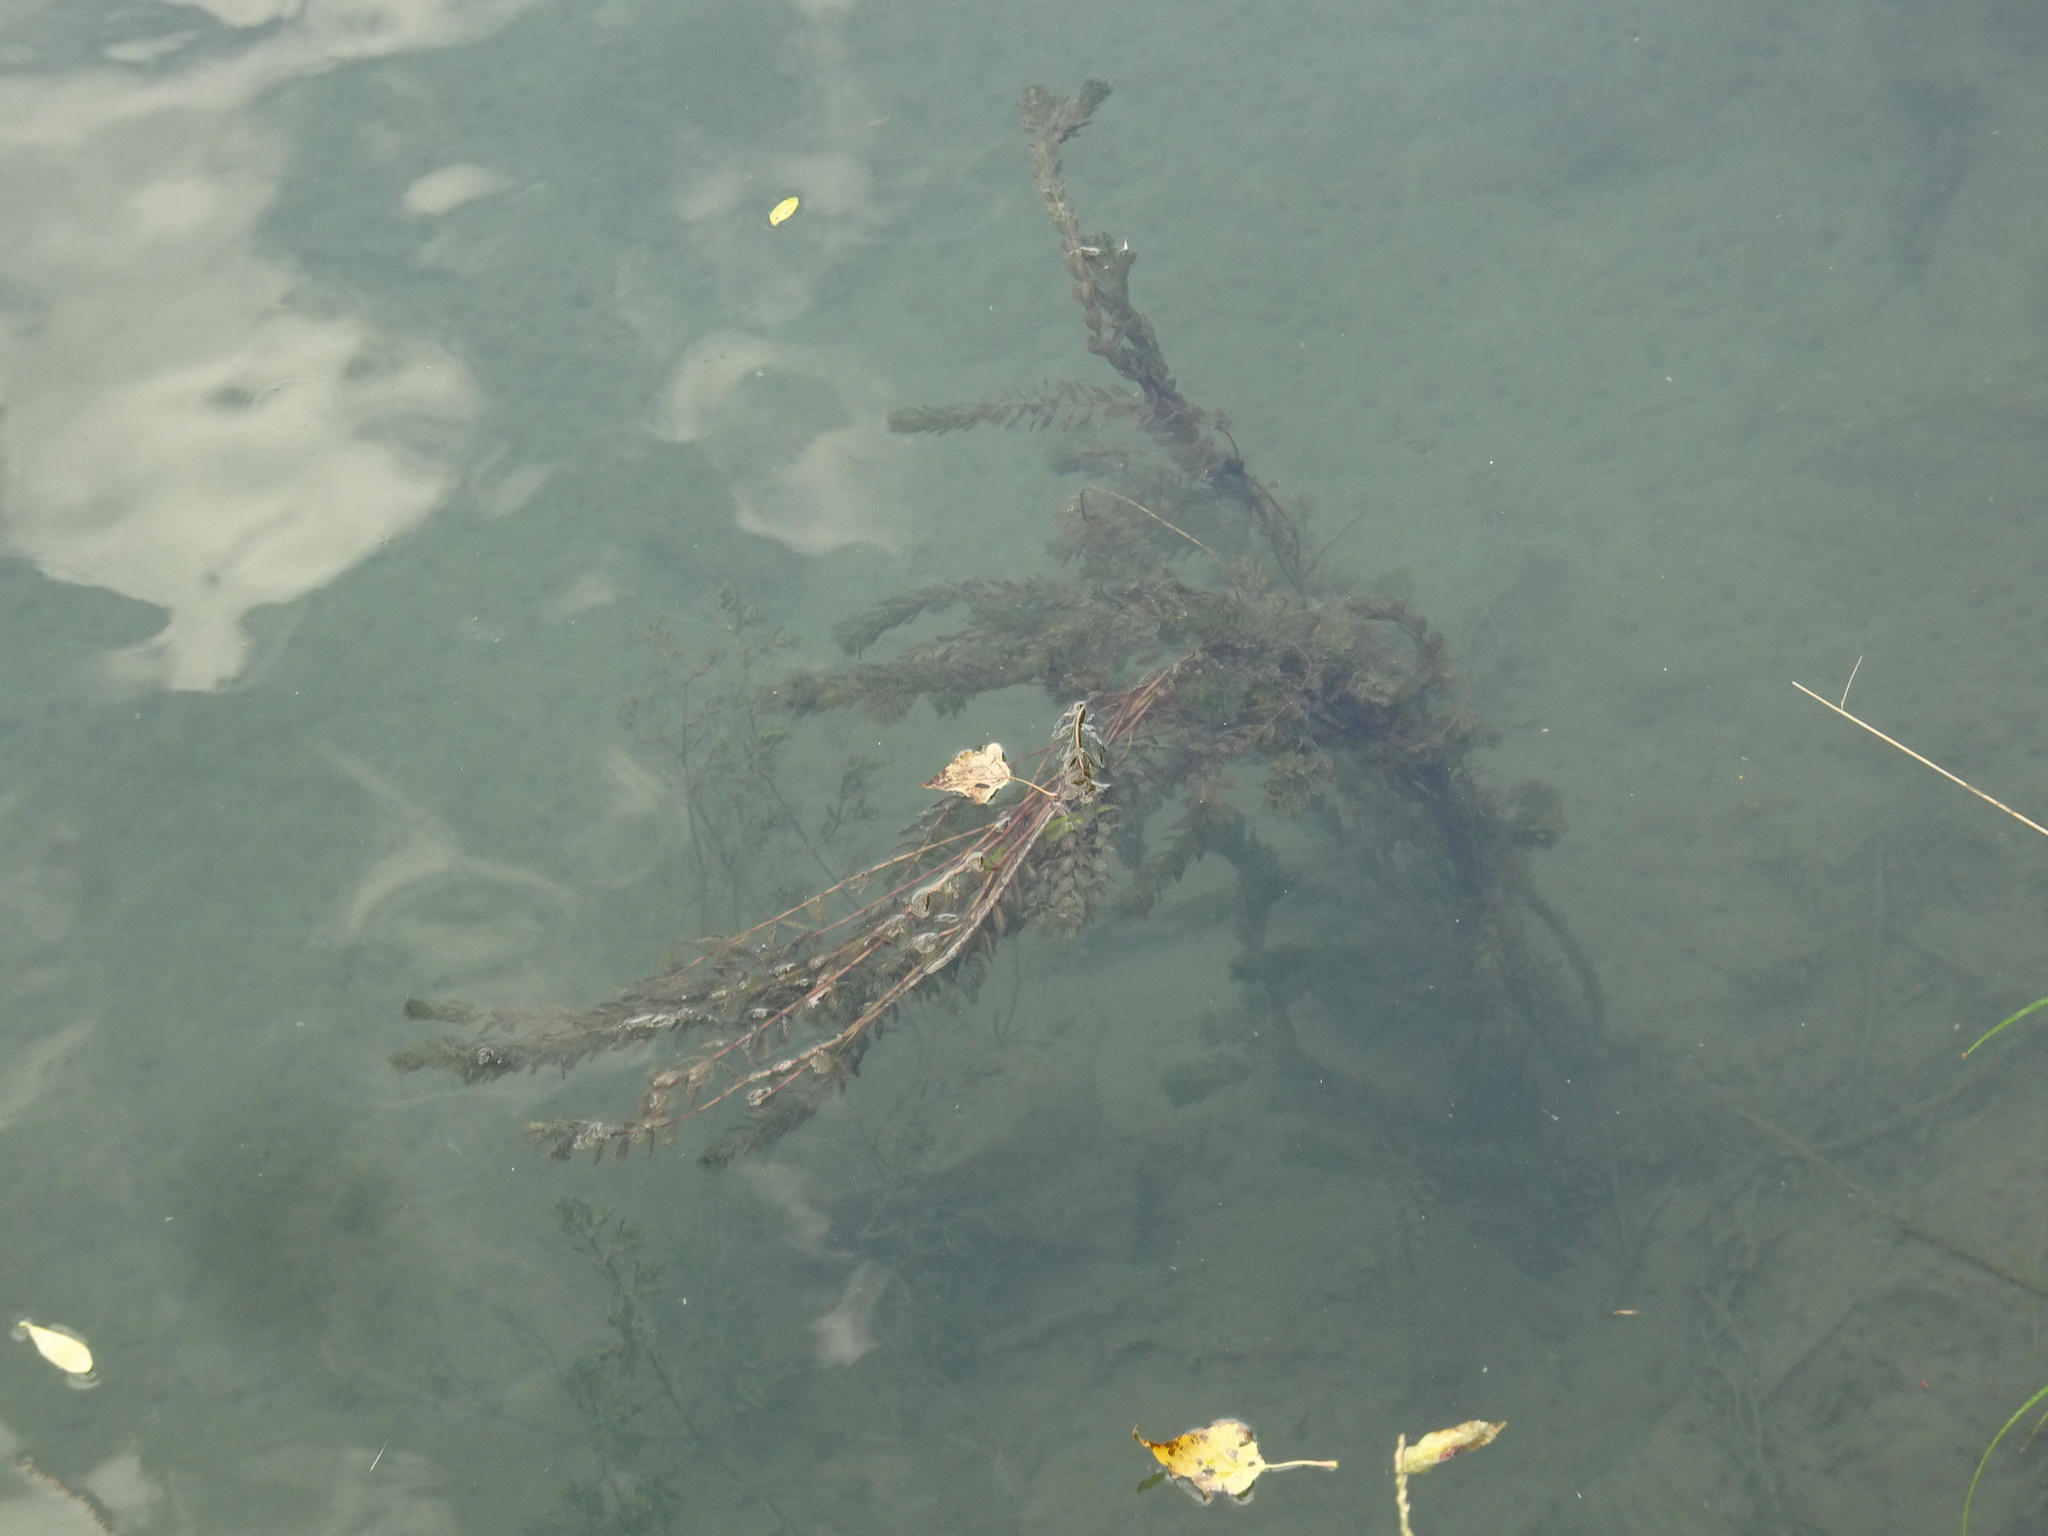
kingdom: Plantae
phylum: Tracheophyta
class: Magnoliopsida
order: Saxifragales
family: Haloragaceae
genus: Myriophyllum
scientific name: Myriophyllum spicatum
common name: Spiked water-milfoil
